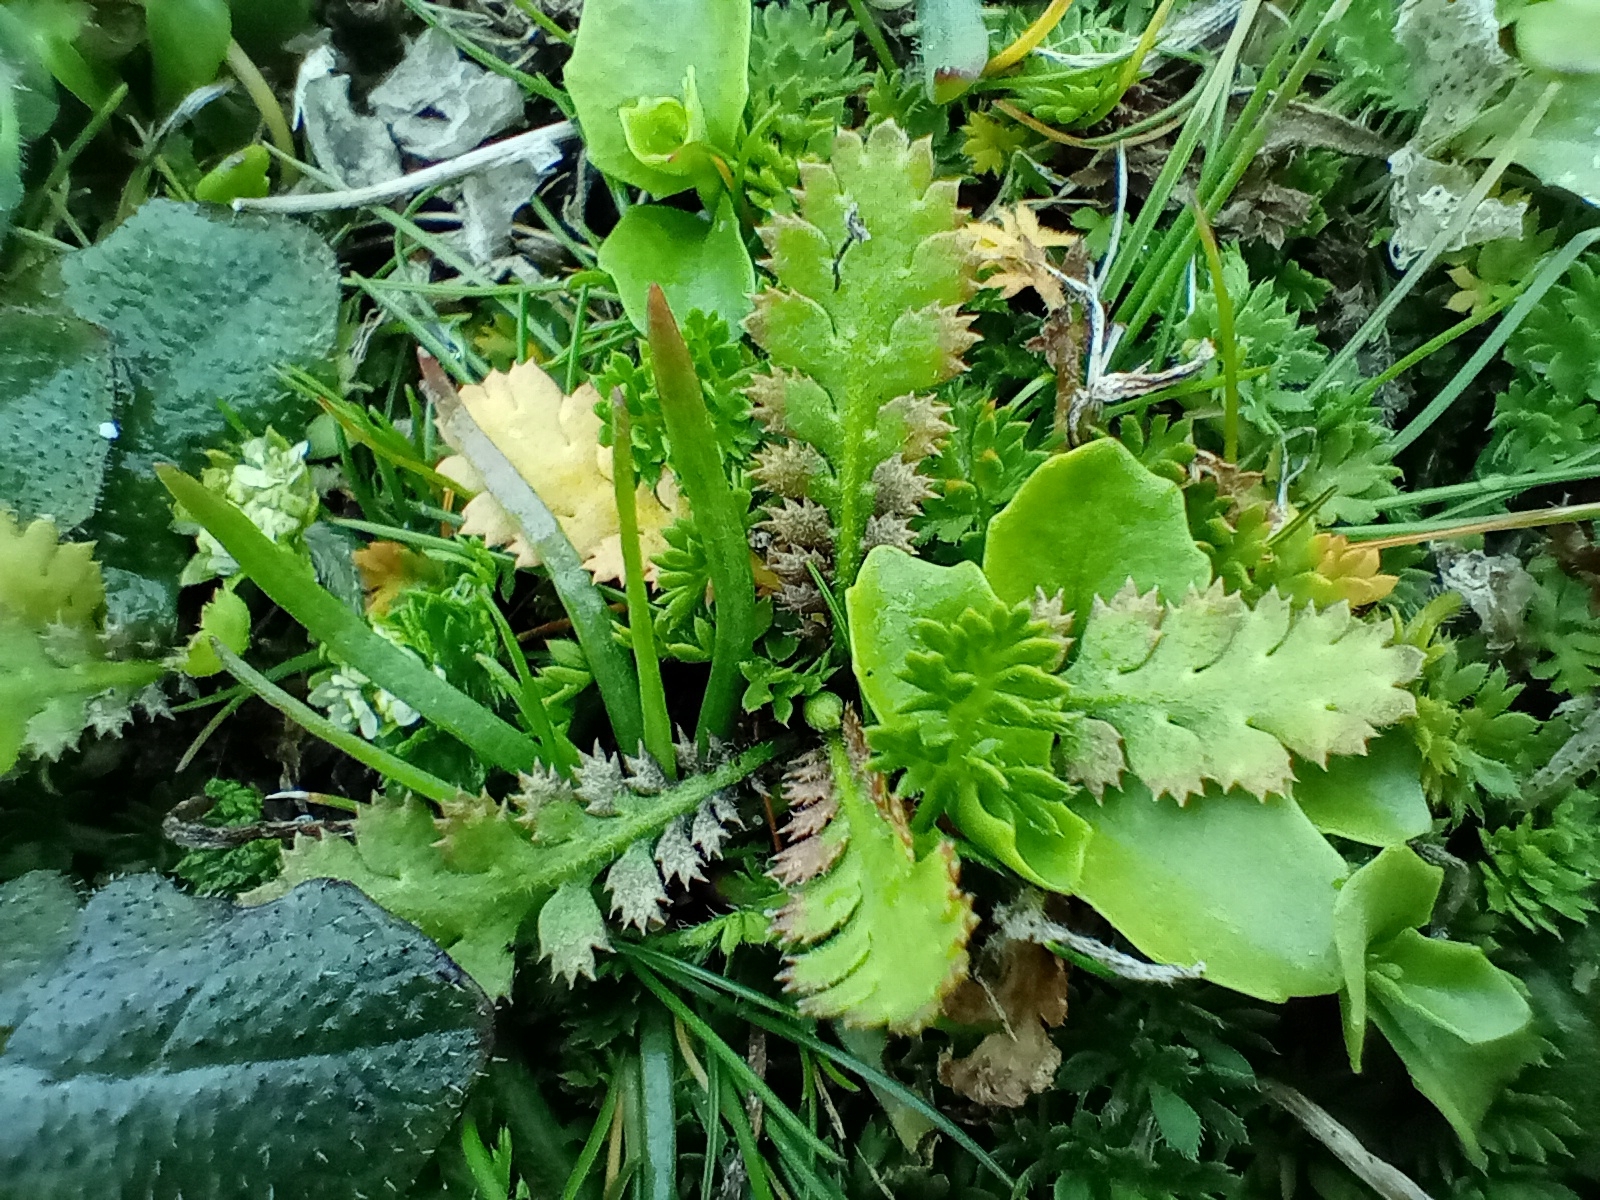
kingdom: Plantae
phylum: Tracheophyta
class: Magnoliopsida
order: Asterales
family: Asteraceae
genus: Leptinella
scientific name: Leptinella squalida
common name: New zealand brass-buttons
